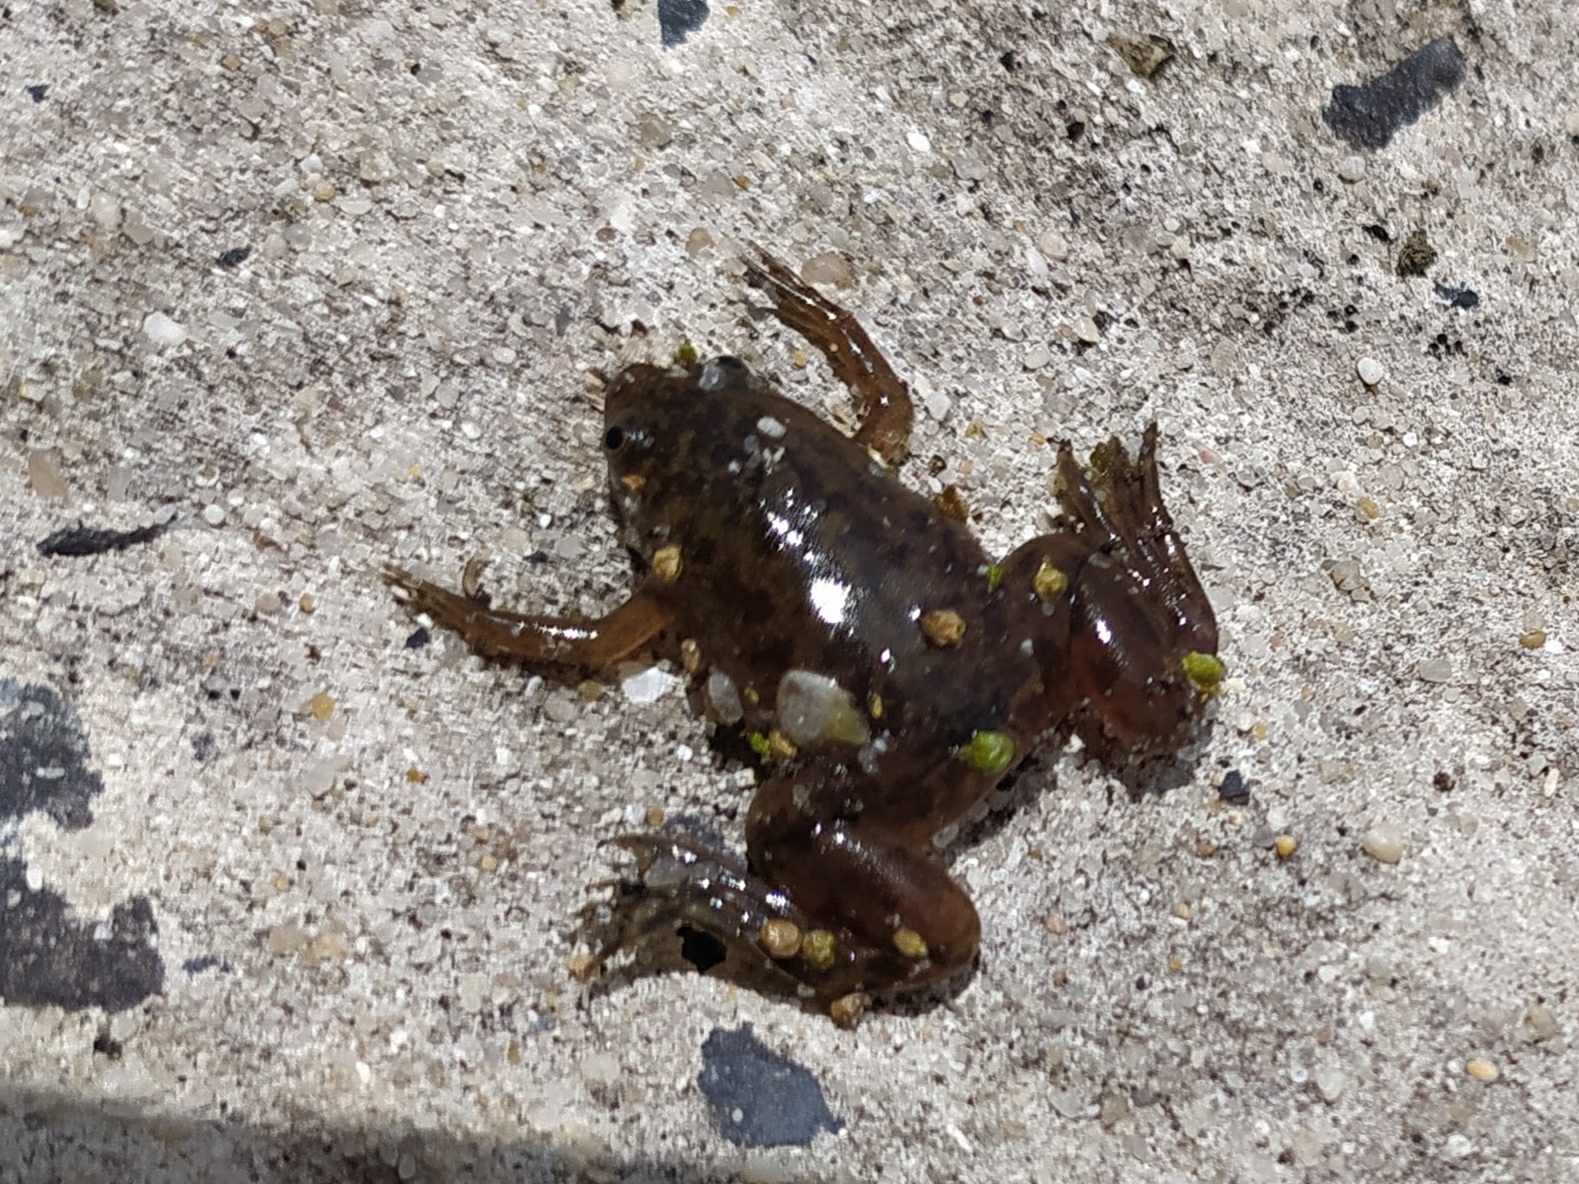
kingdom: Animalia
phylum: Chordata
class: Amphibia
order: Anura
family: Pipidae
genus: Xenopus
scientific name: Xenopus laevis
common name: African clawed frog
